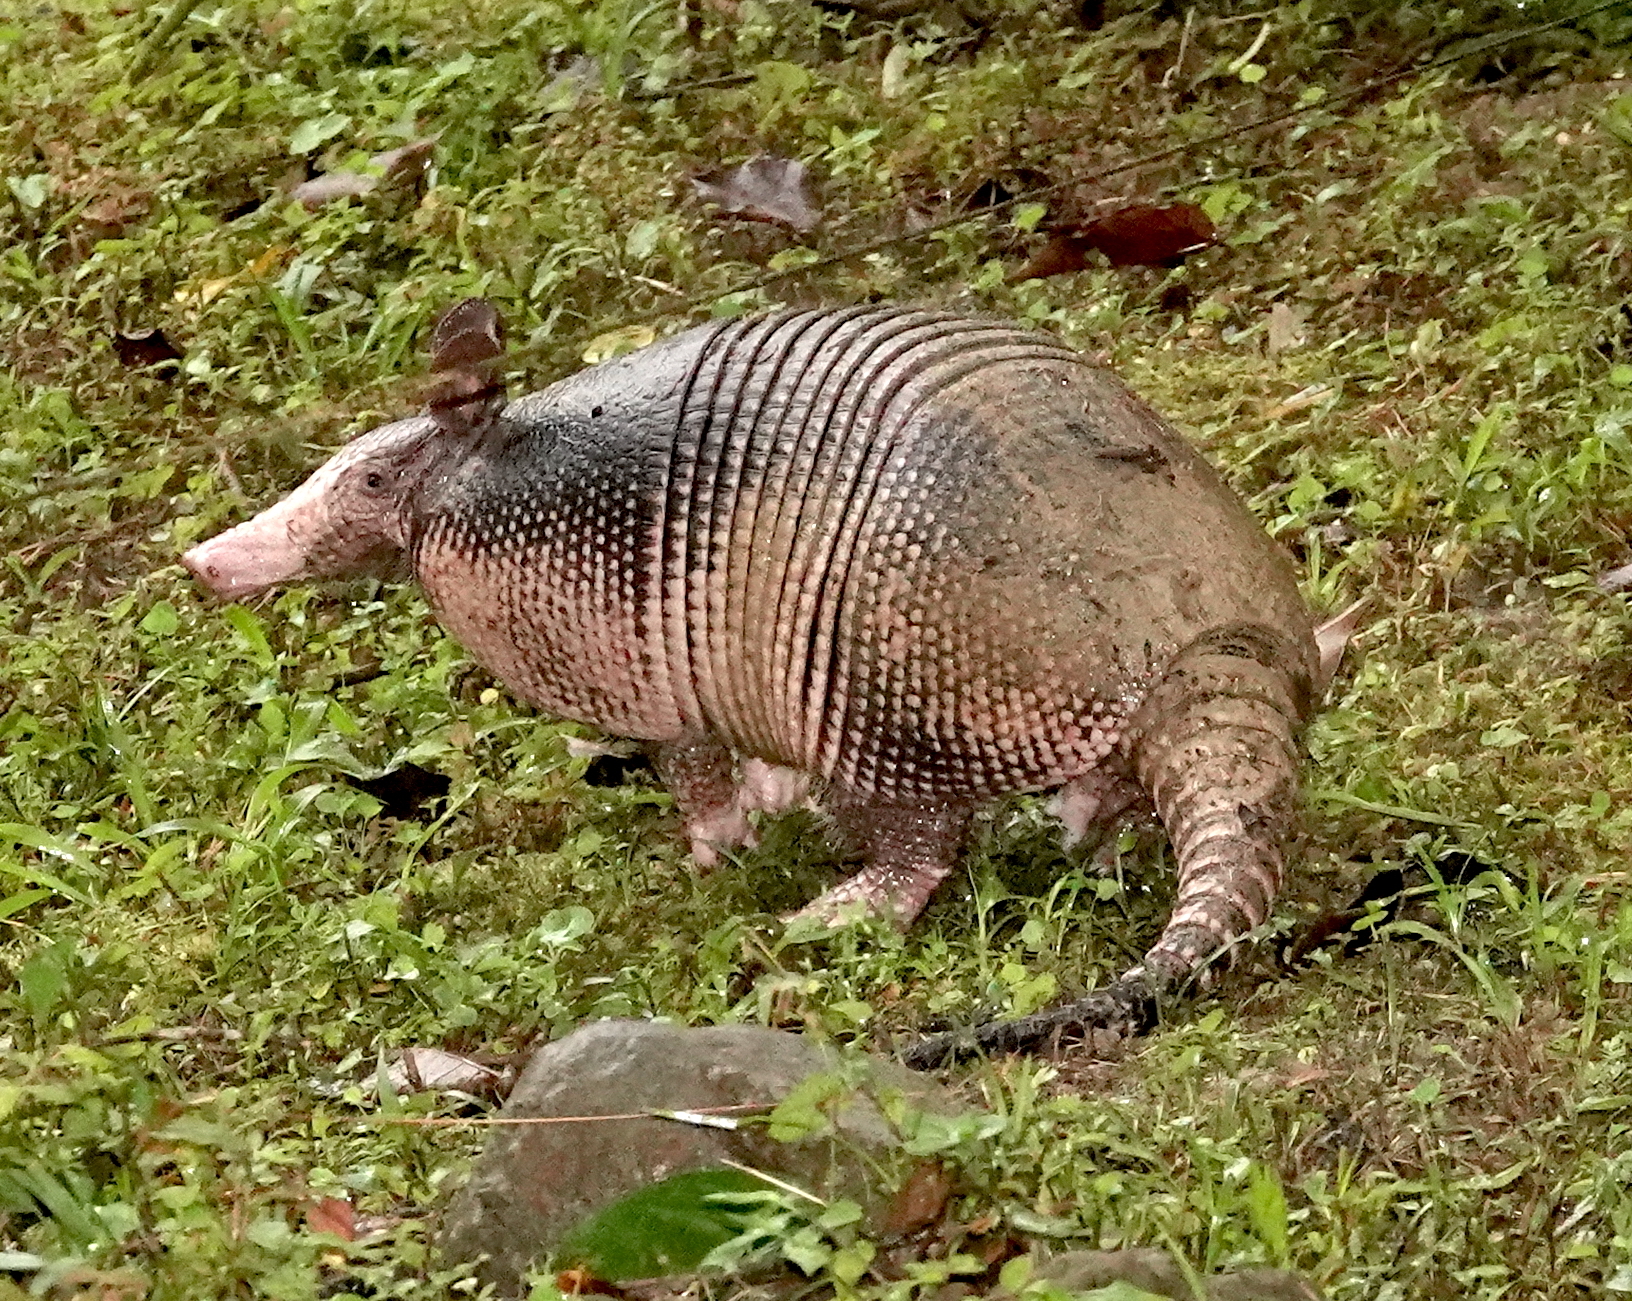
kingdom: Animalia
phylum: Chordata
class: Mammalia
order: Cingulata
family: Dasypodidae
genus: Dasypus
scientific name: Dasypus novemcinctus
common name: Nine-banded armadillo
